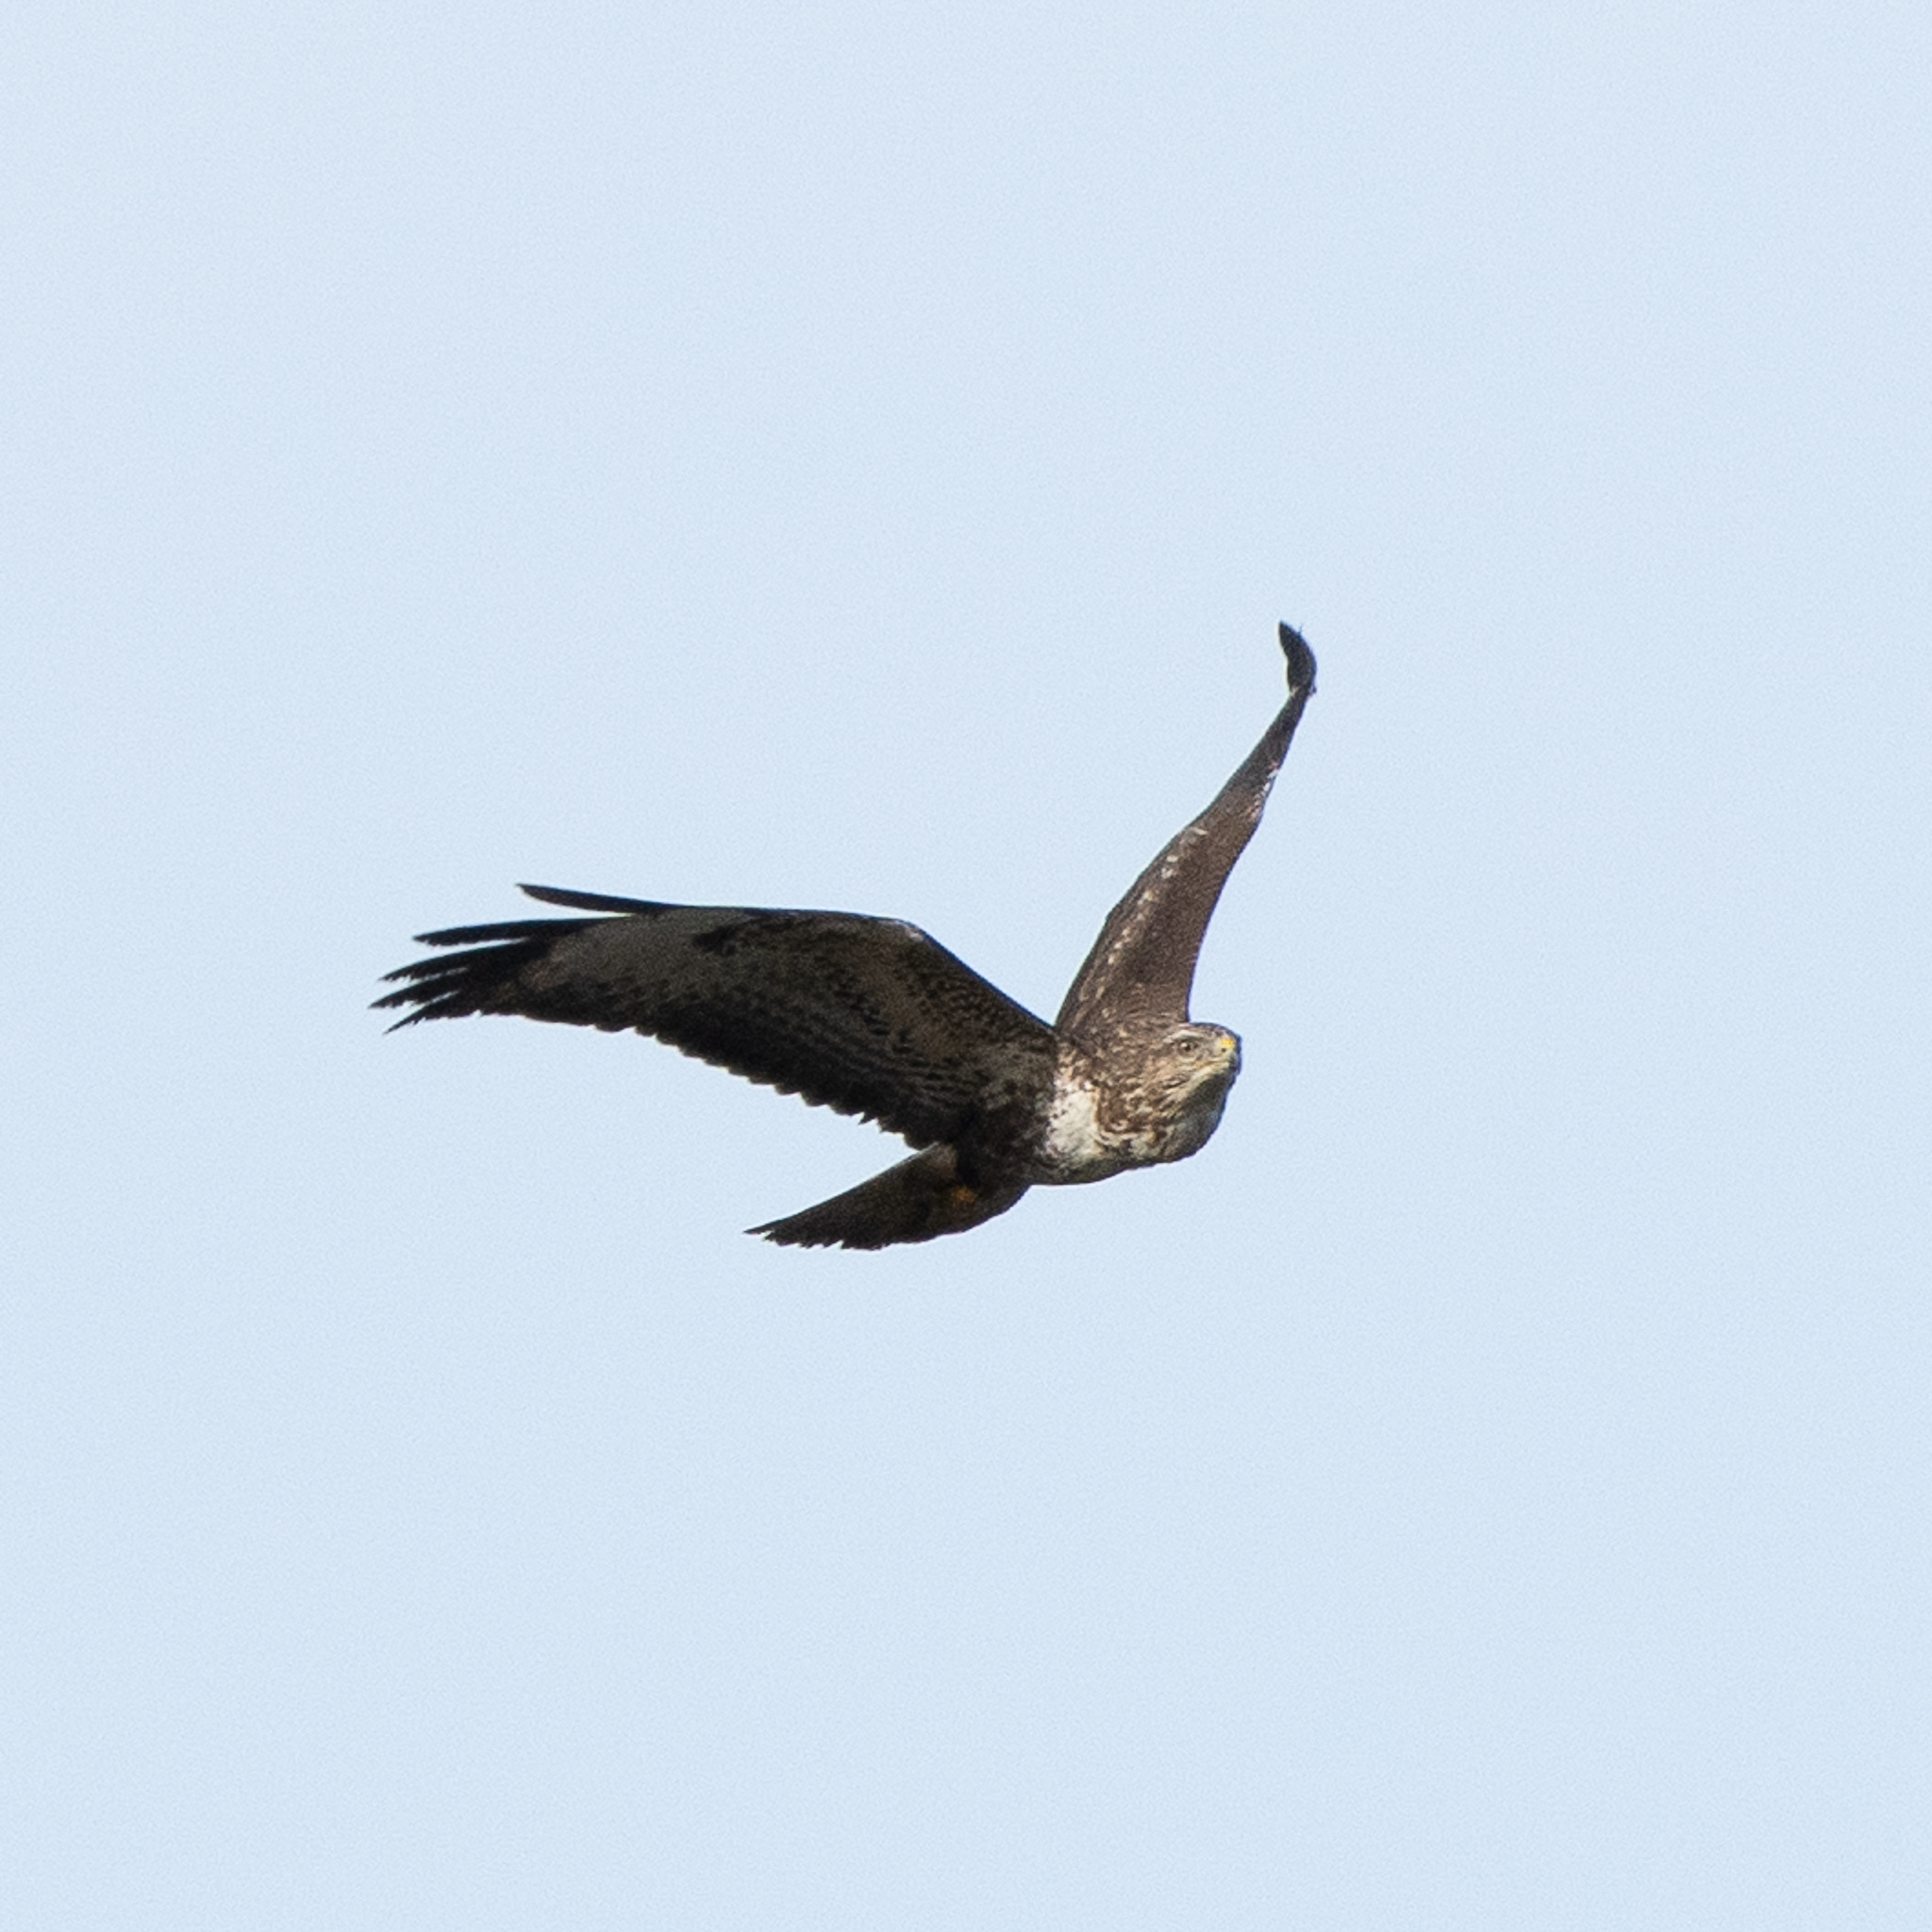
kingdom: Animalia
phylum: Chordata
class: Aves
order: Accipitriformes
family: Accipitridae
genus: Buteo
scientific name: Buteo buteo
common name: Common buzzard
